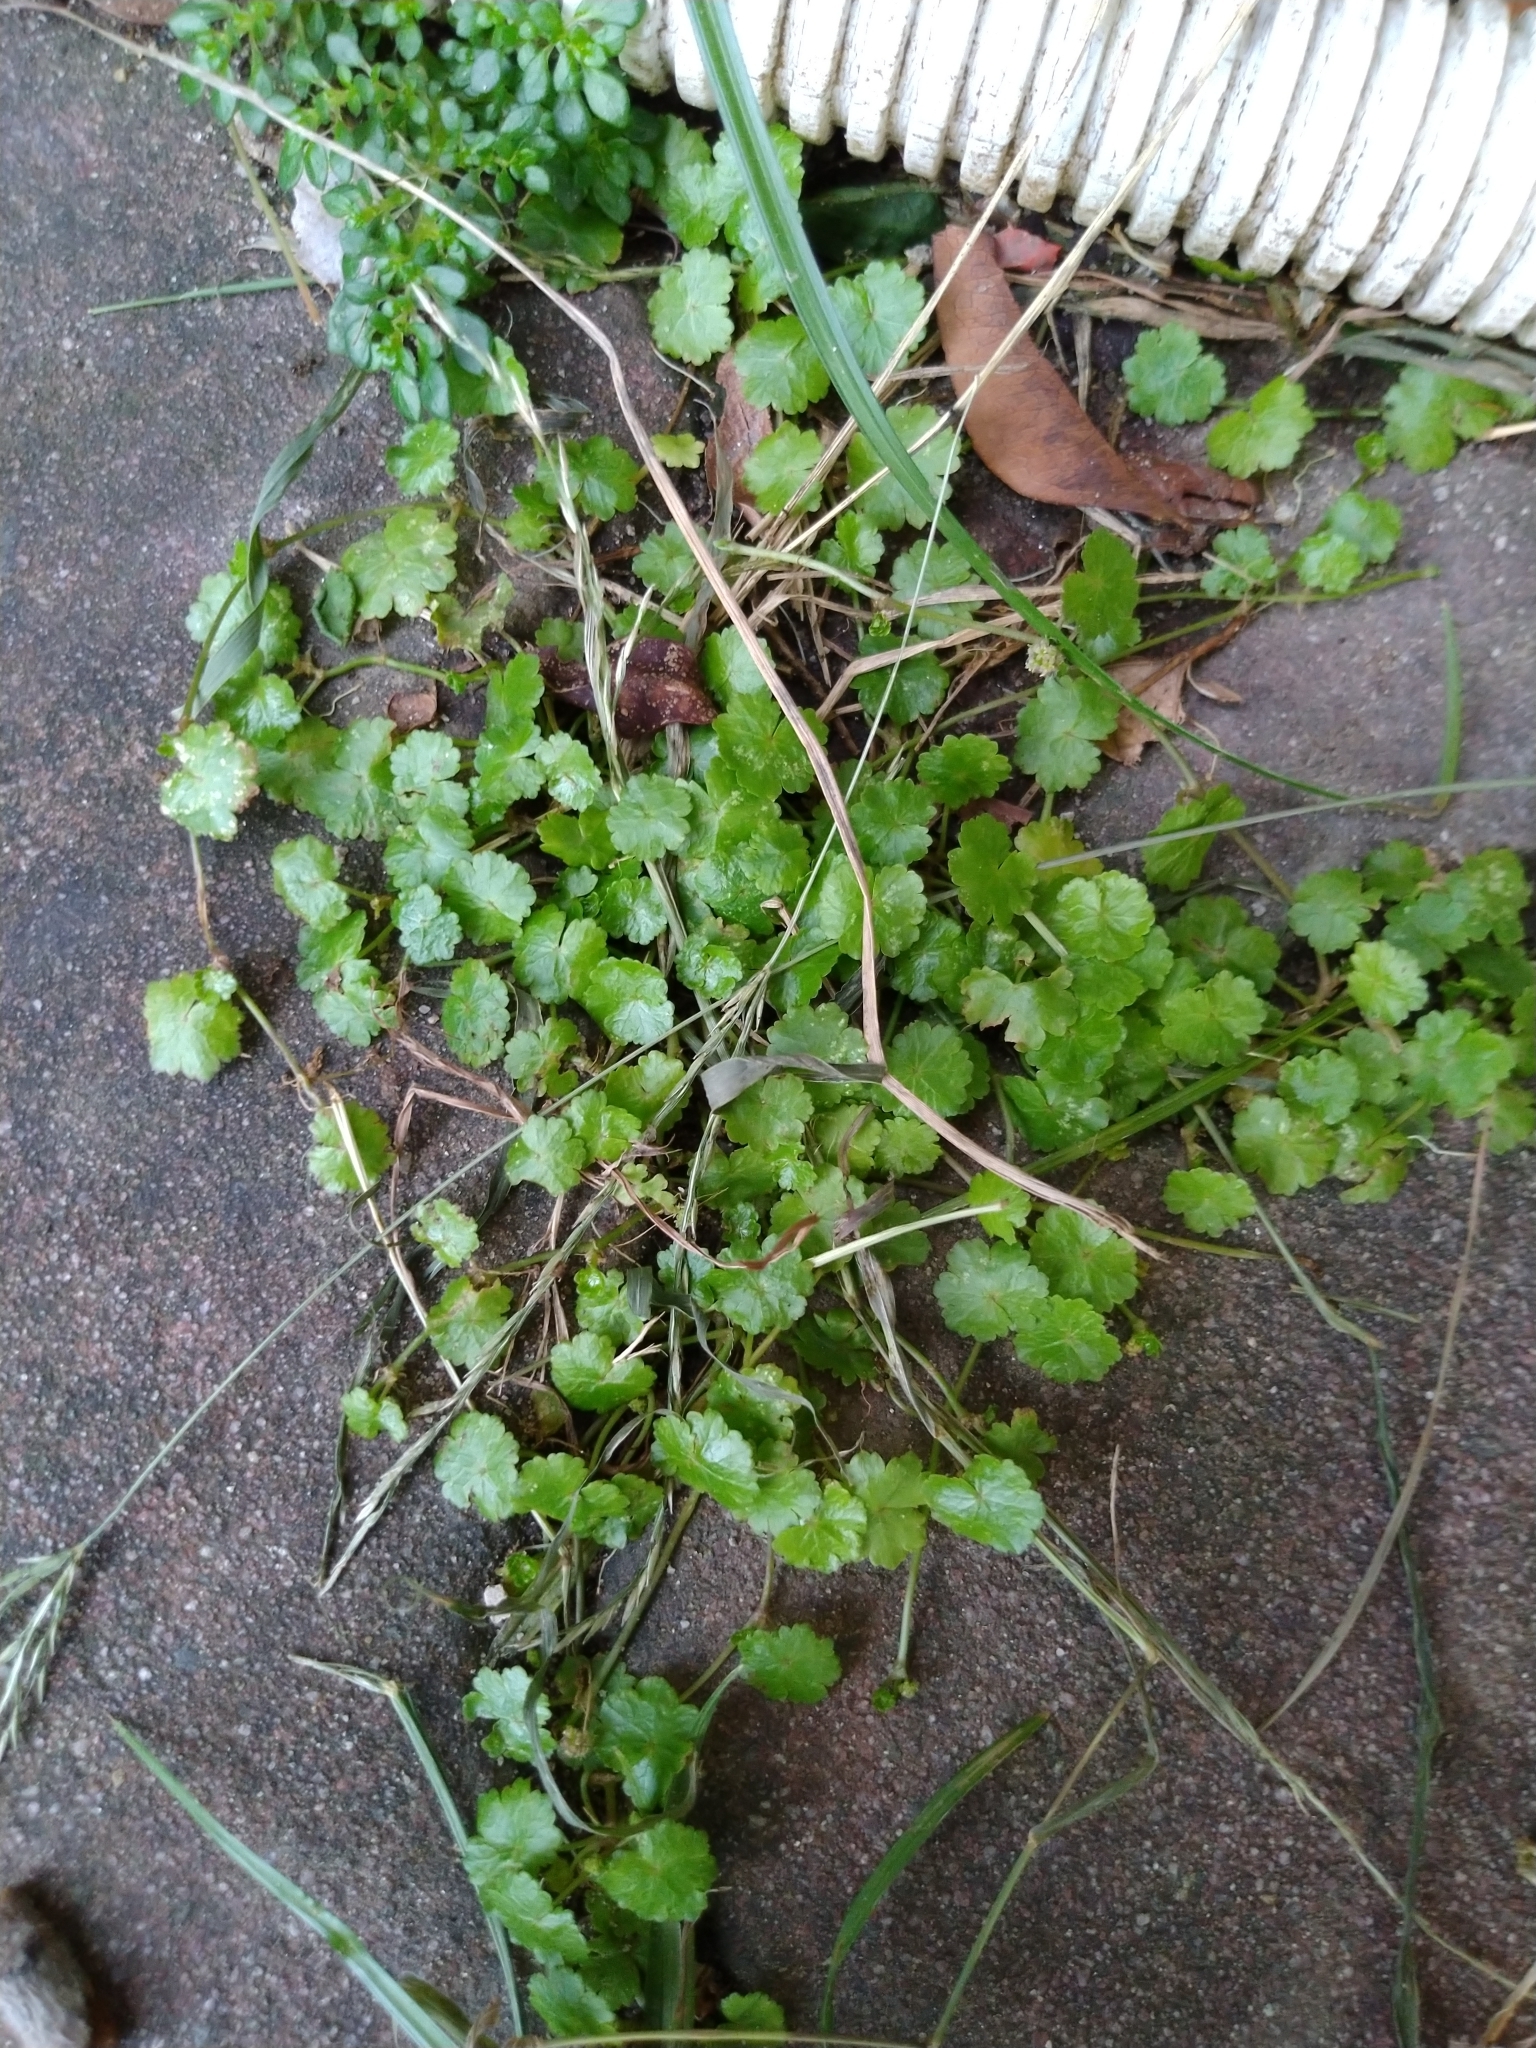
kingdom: Plantae
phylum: Tracheophyta
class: Magnoliopsida
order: Apiales
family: Araliaceae
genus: Hydrocotyle
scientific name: Hydrocotyle sibthorpioides
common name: Lawn marshpennywort
